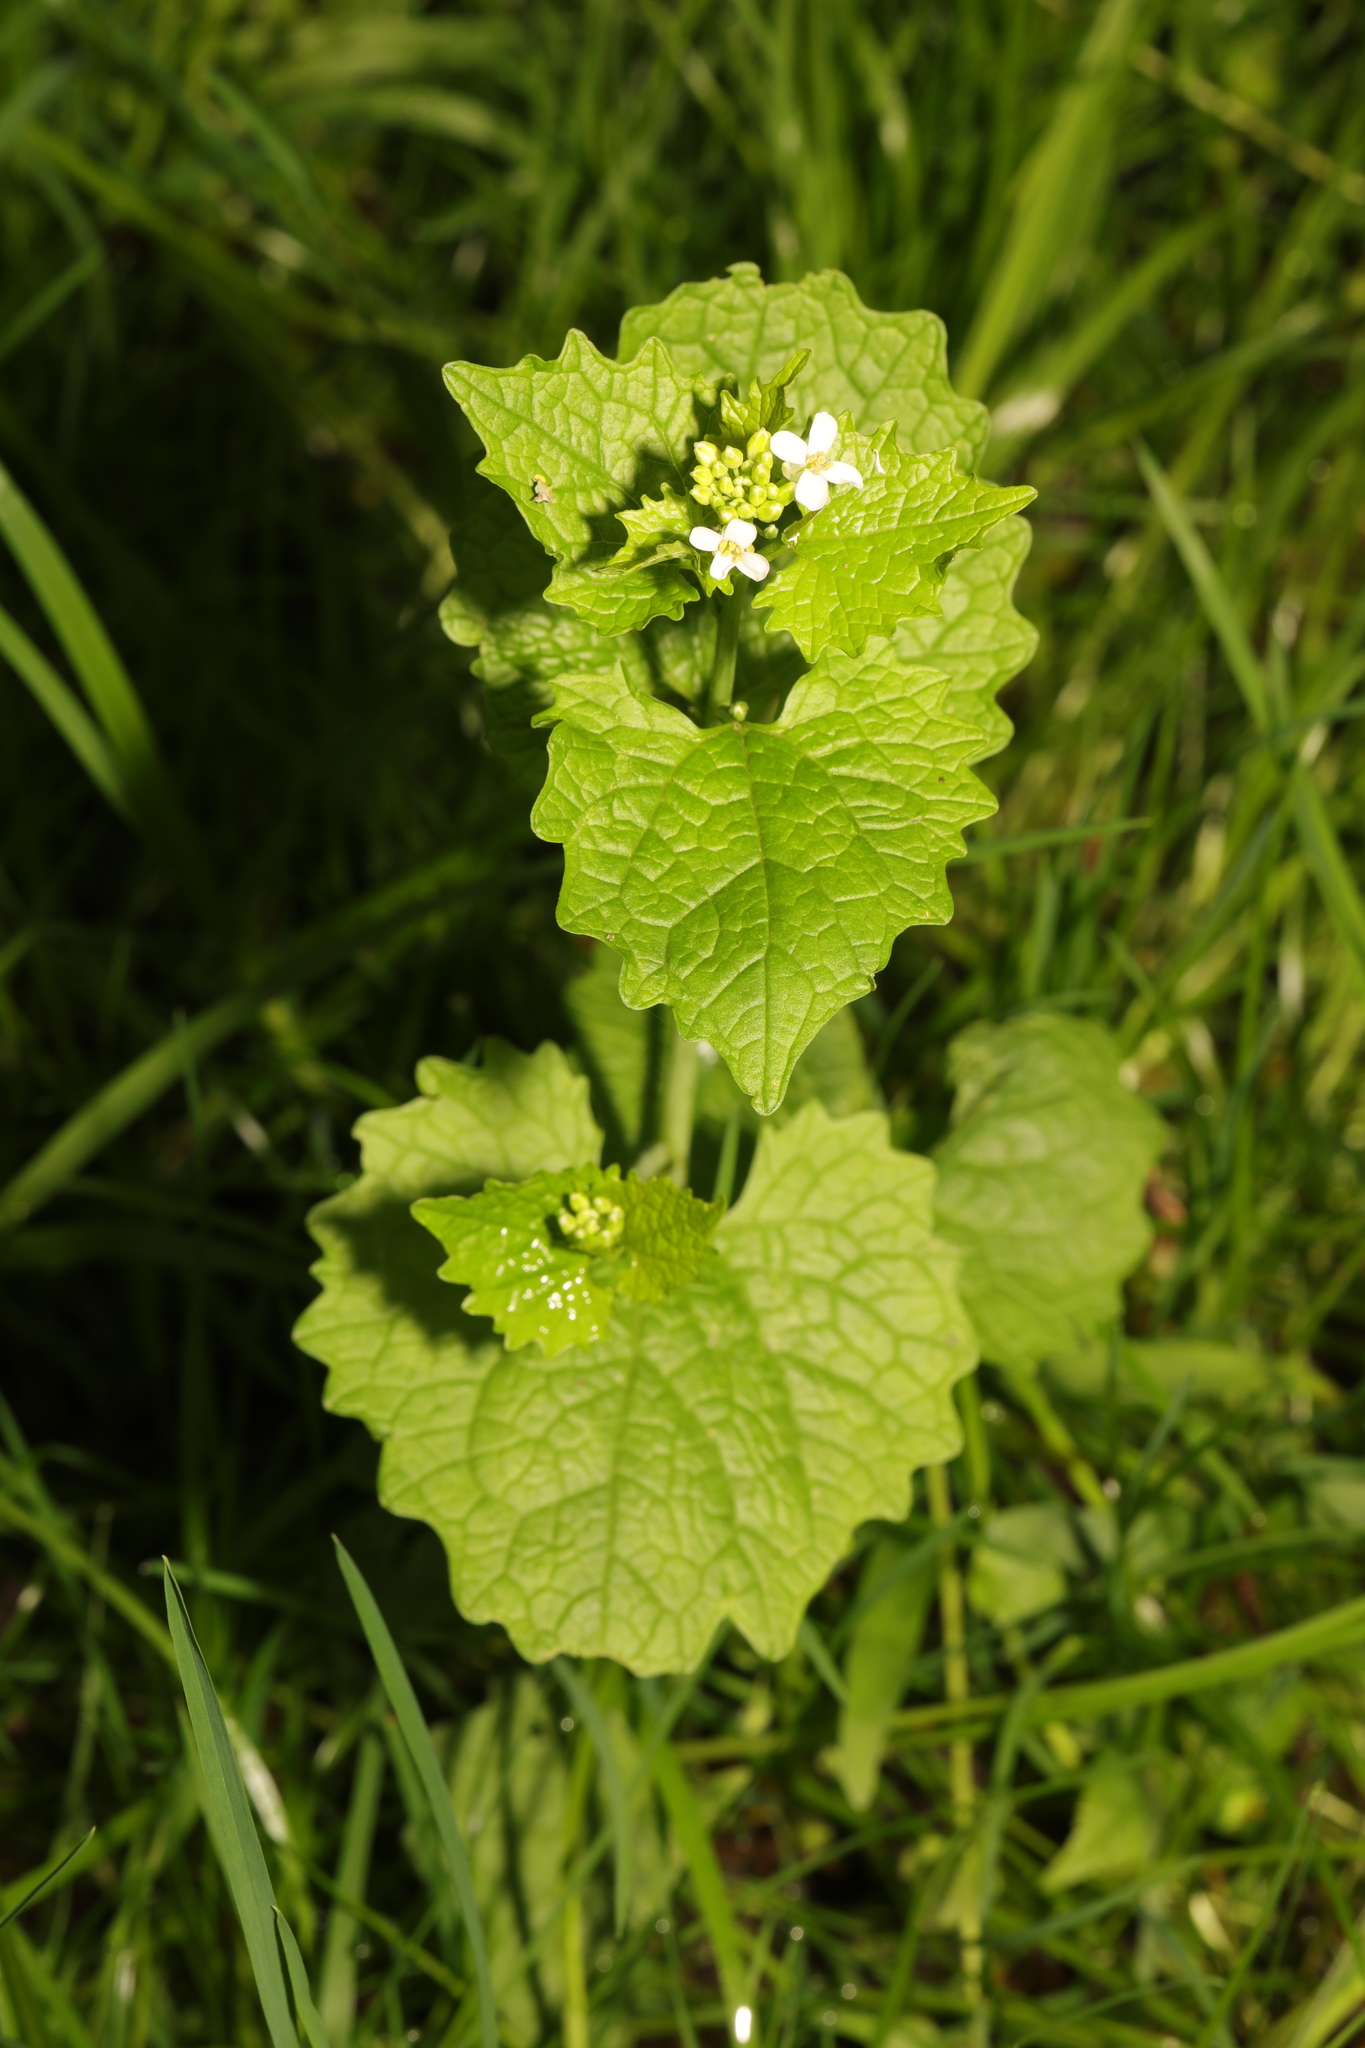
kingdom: Plantae
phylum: Tracheophyta
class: Magnoliopsida
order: Brassicales
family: Brassicaceae
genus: Alliaria
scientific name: Alliaria petiolata
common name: Garlic mustard
